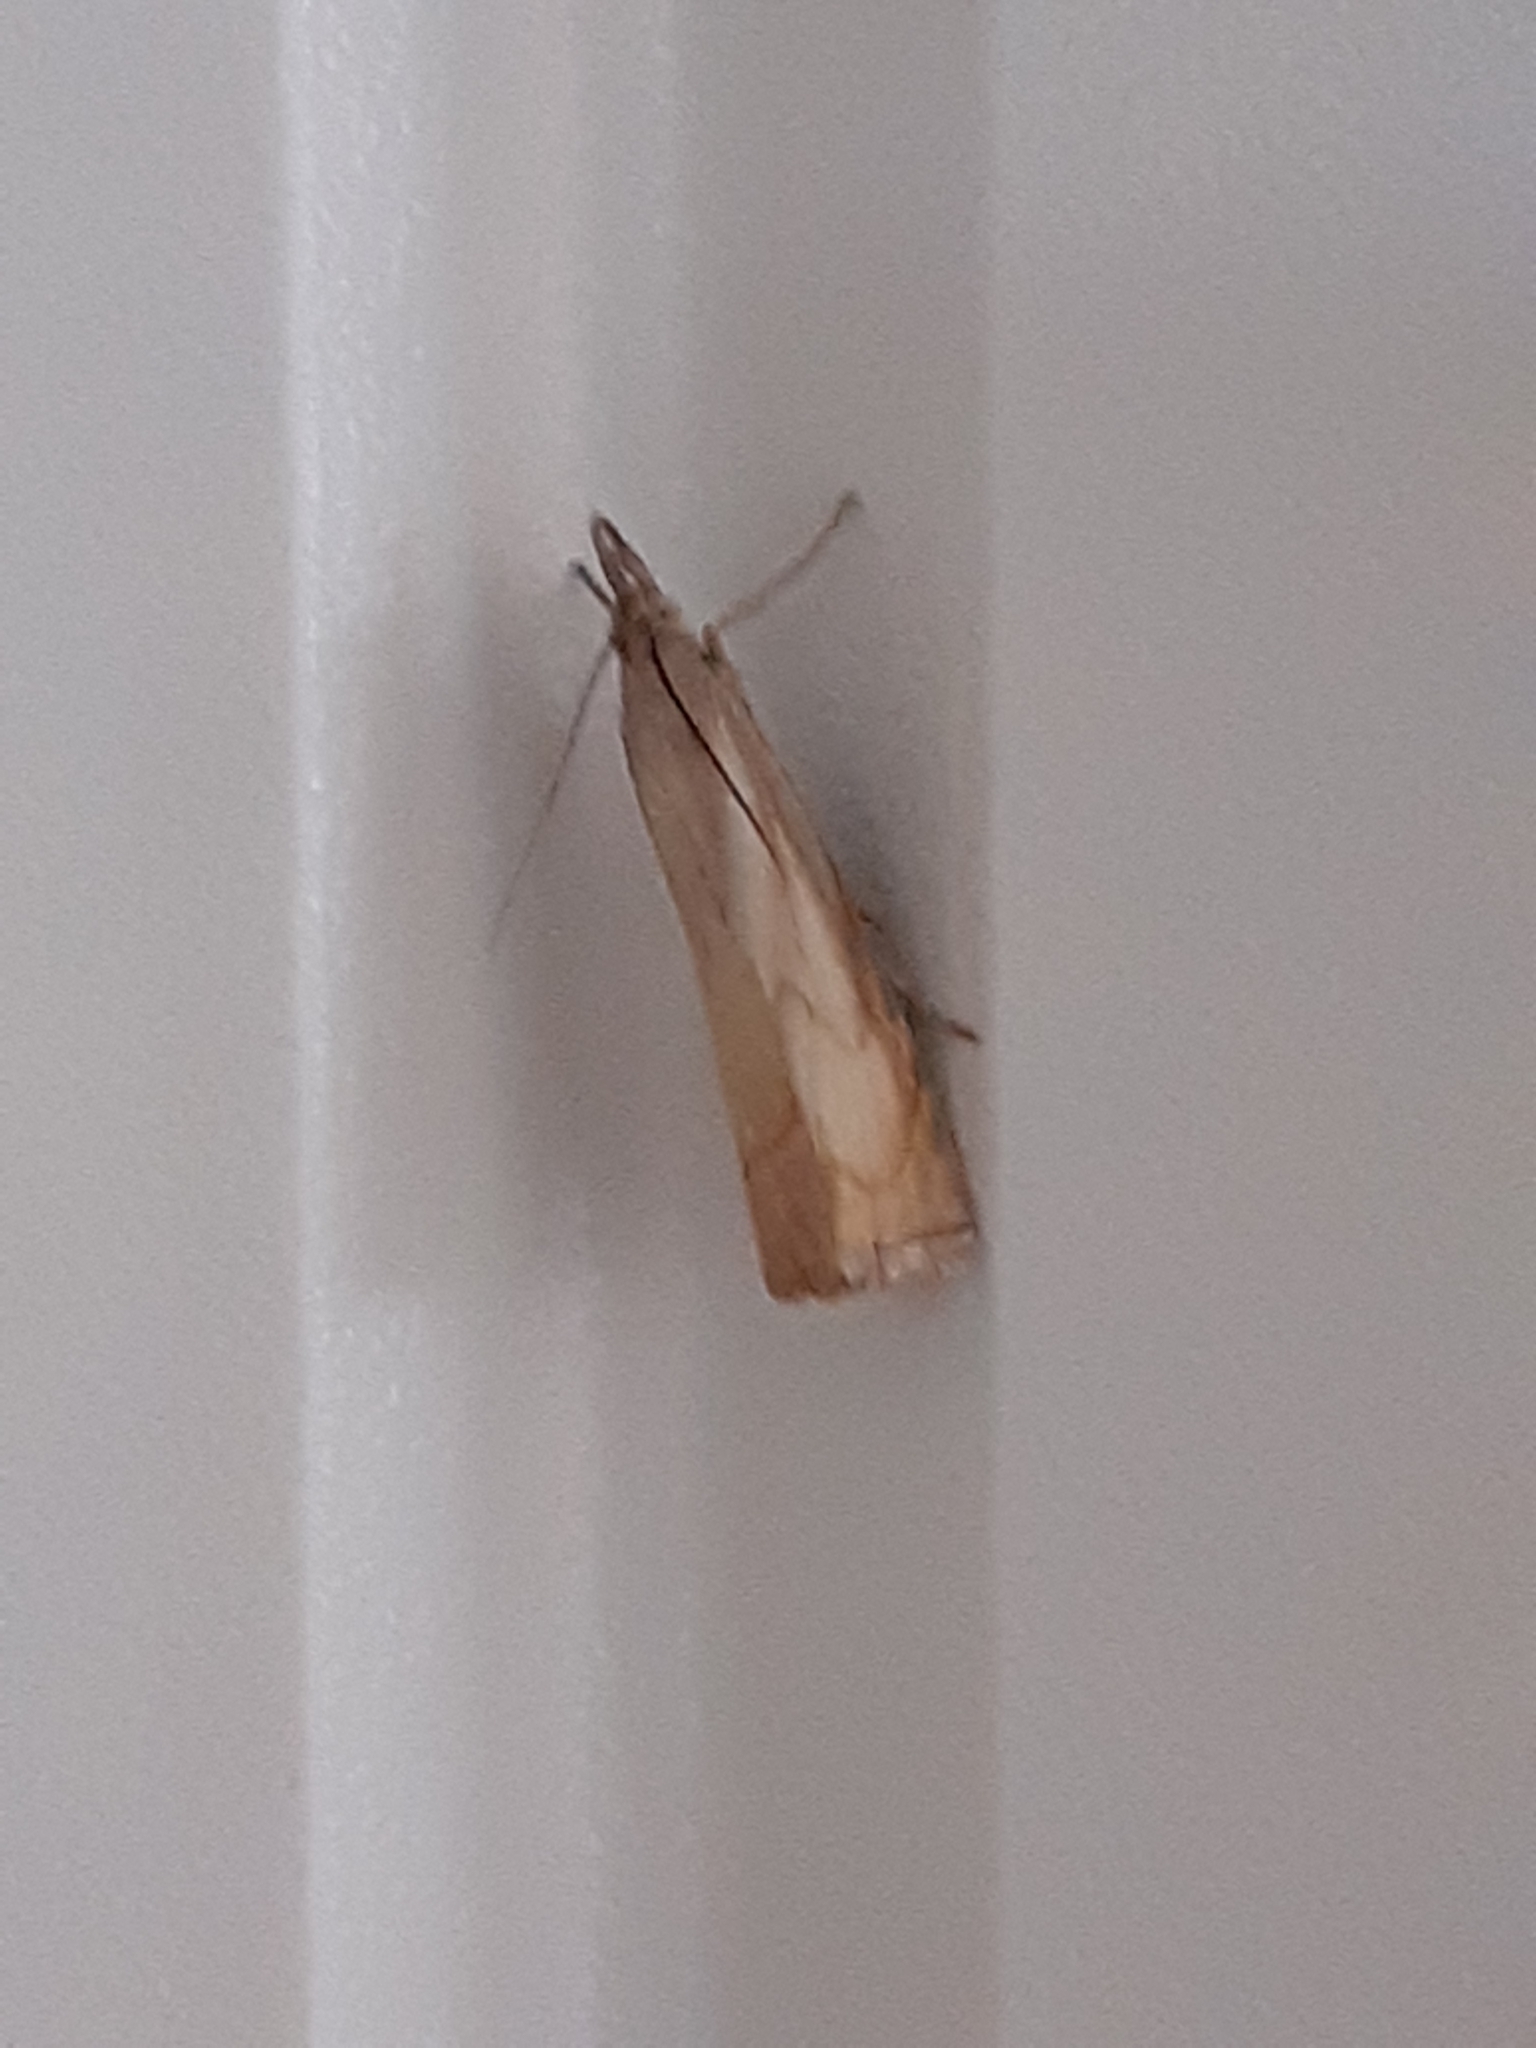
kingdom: Animalia
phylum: Arthropoda
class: Insecta
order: Lepidoptera
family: Crambidae
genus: Chrysoteuchia
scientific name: Chrysoteuchia culmella
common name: Garden grass-veneer
